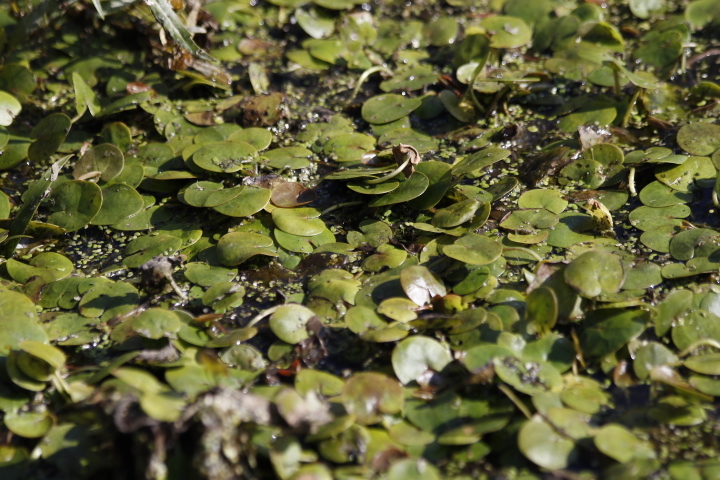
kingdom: Plantae
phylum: Tracheophyta
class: Liliopsida
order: Alismatales
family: Hydrocharitaceae
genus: Hydrocharis
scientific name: Hydrocharis morsus-ranae
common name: Frogbit
